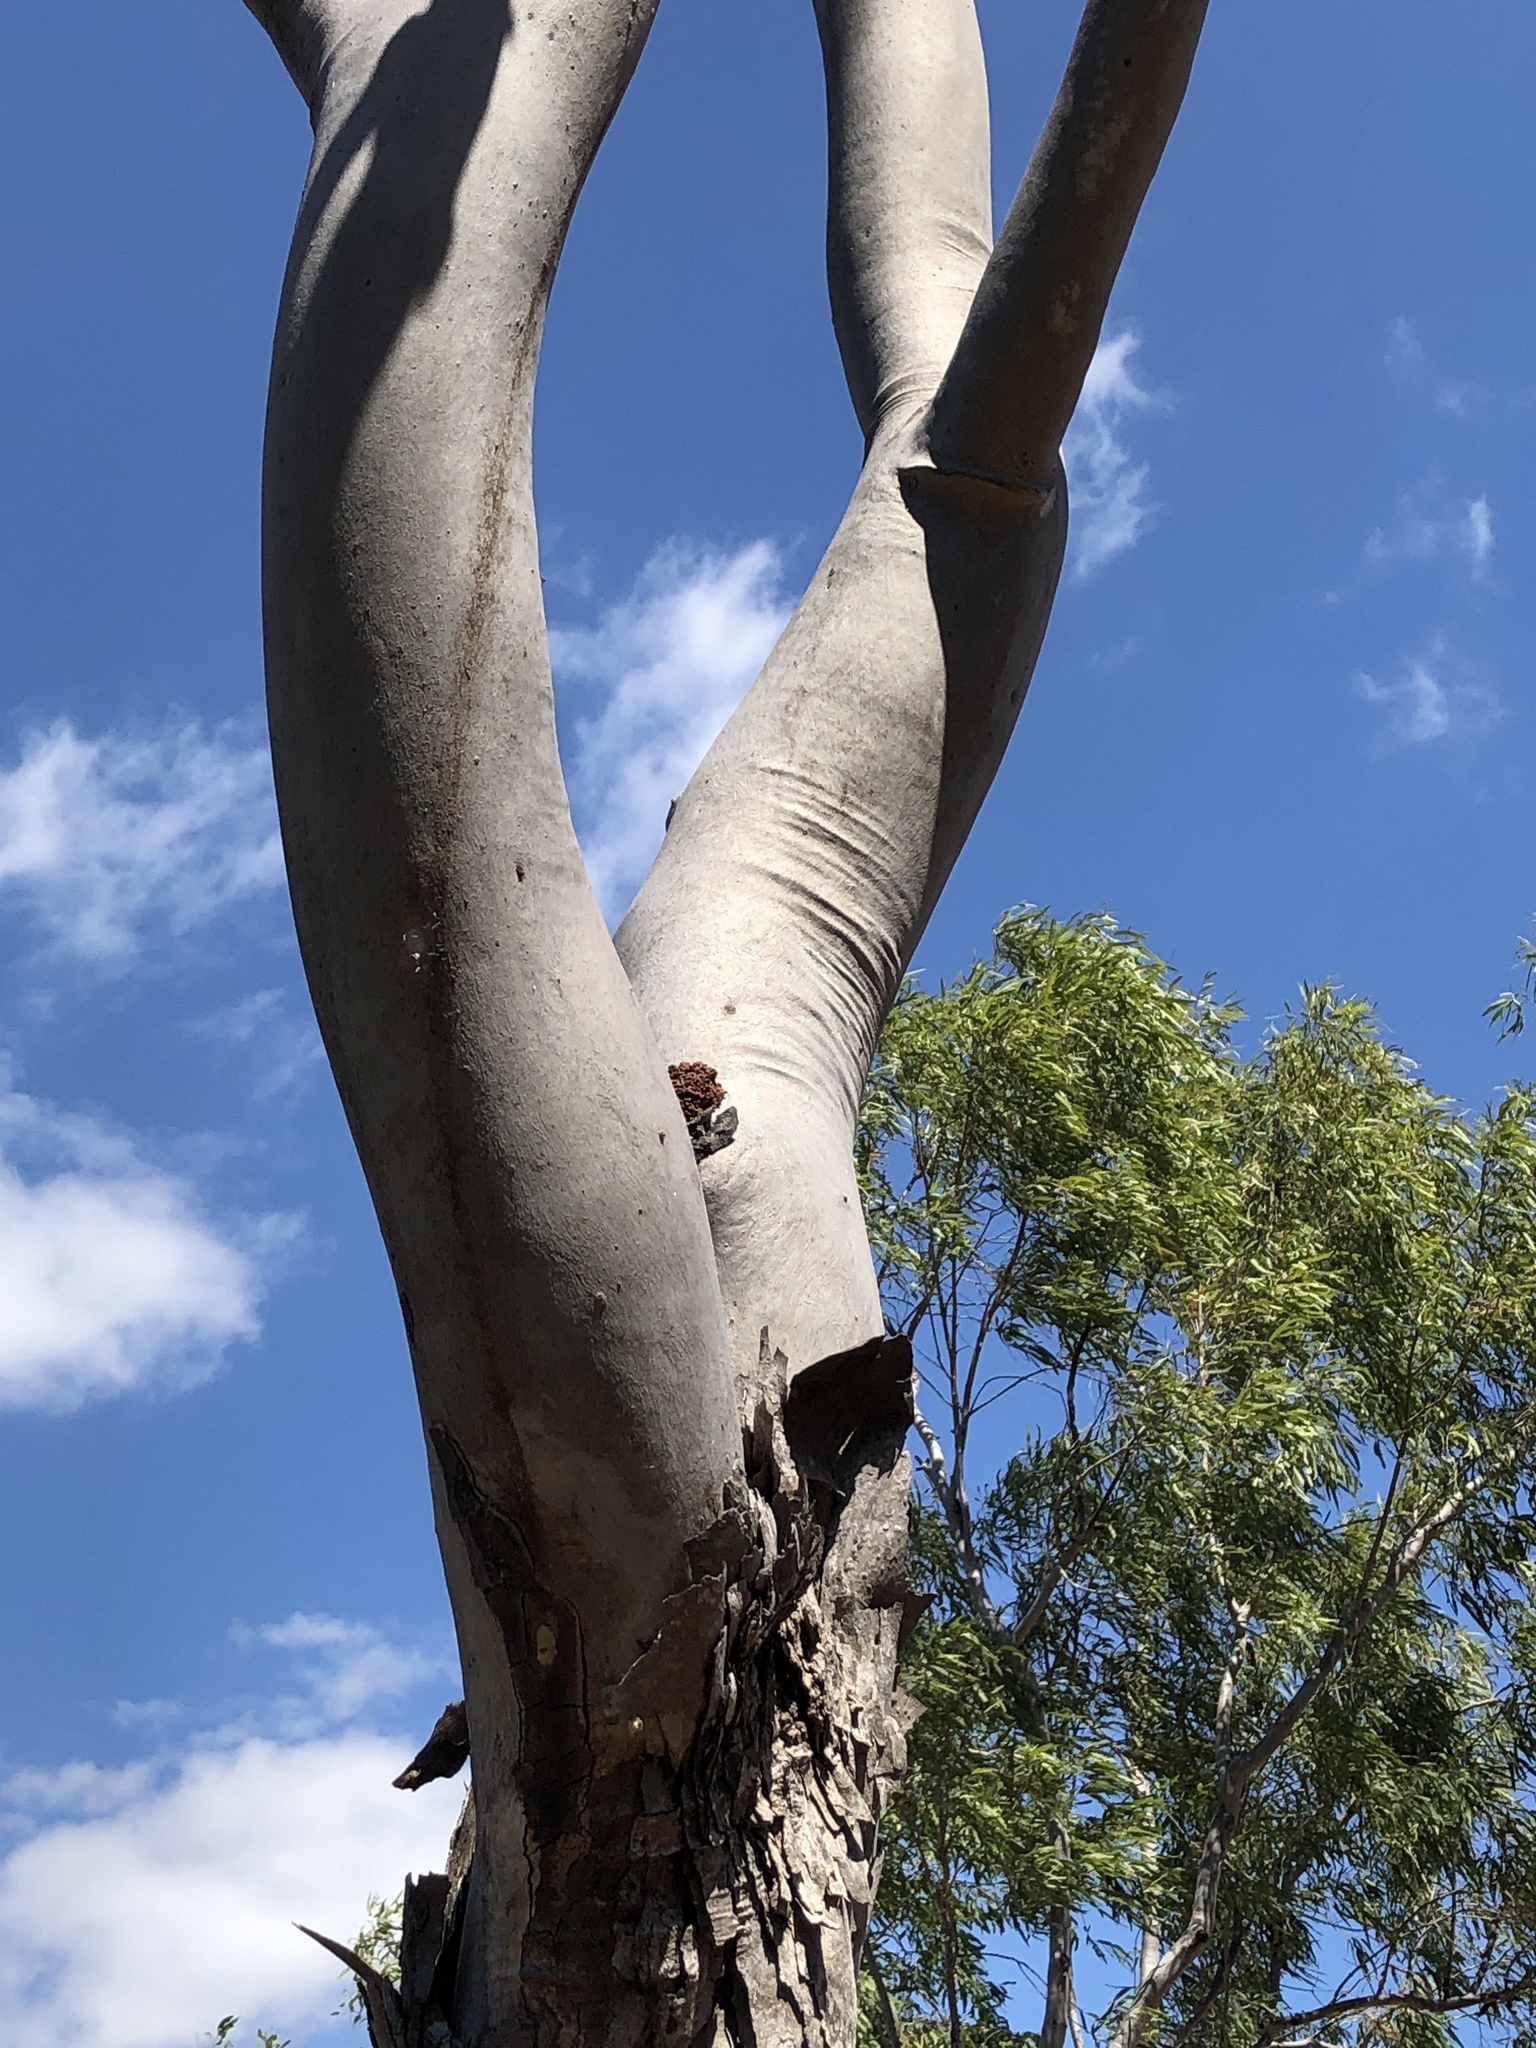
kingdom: Plantae
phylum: Tracheophyta
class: Magnoliopsida
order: Myrtales
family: Myrtaceae
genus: Corymbia
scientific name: Corymbia tessellaris
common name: Carbeen
